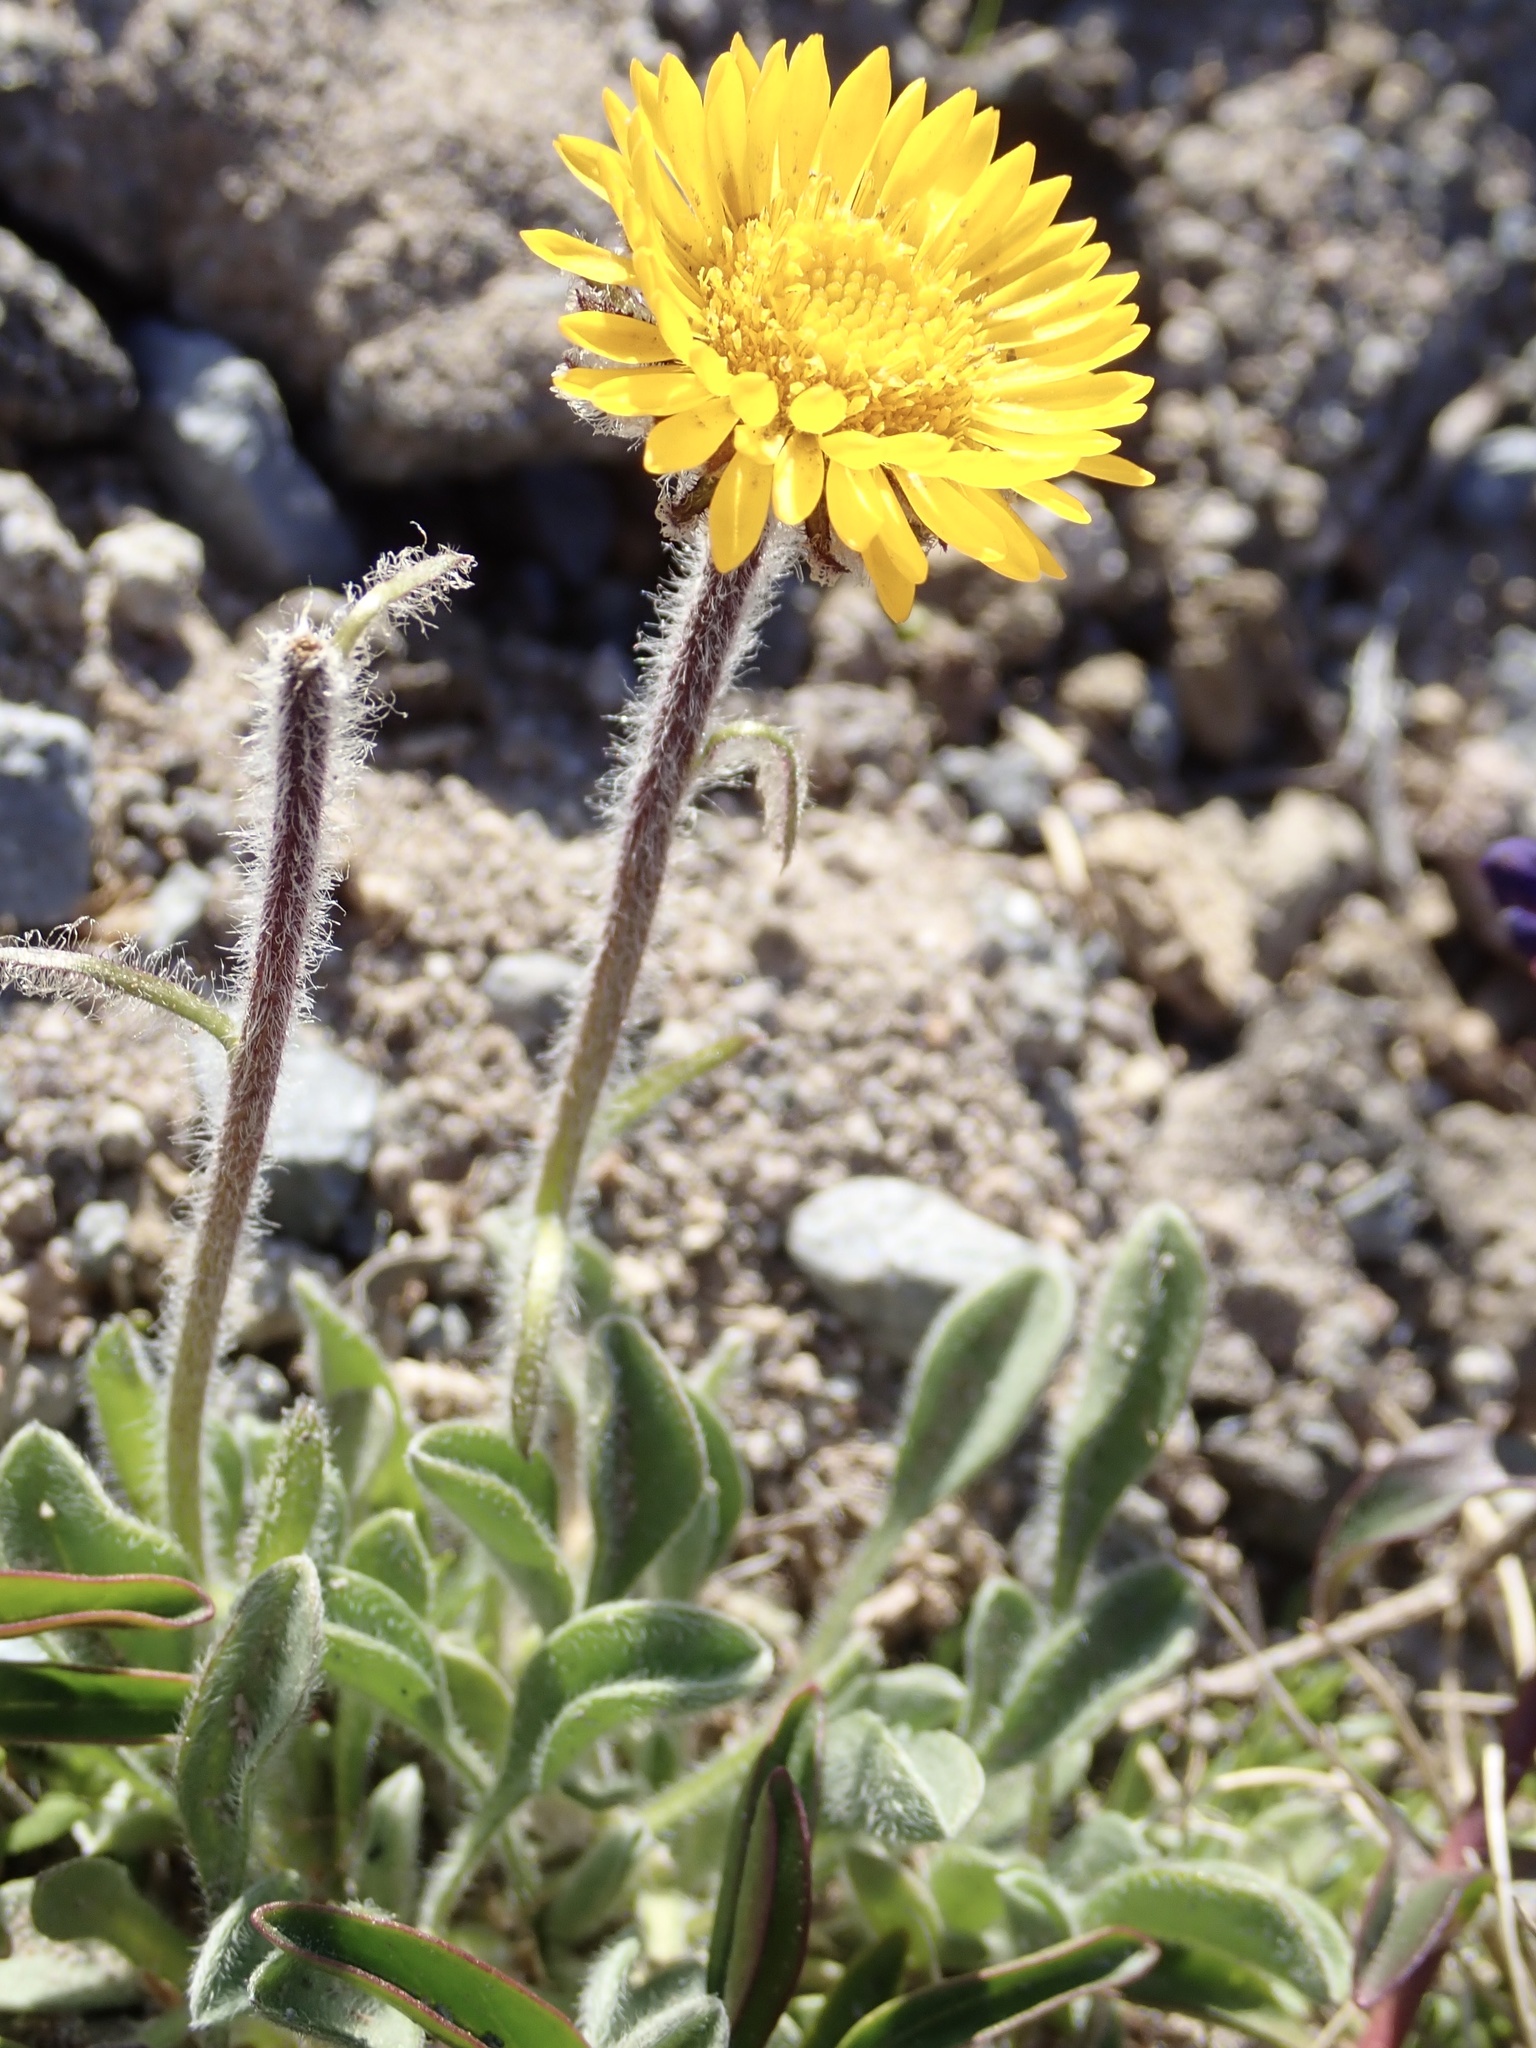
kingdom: Plantae
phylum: Tracheophyta
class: Magnoliopsida
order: Asterales
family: Asteraceae
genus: Erigeron
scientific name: Erigeron aureus
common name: Alpine yellow fleabane
